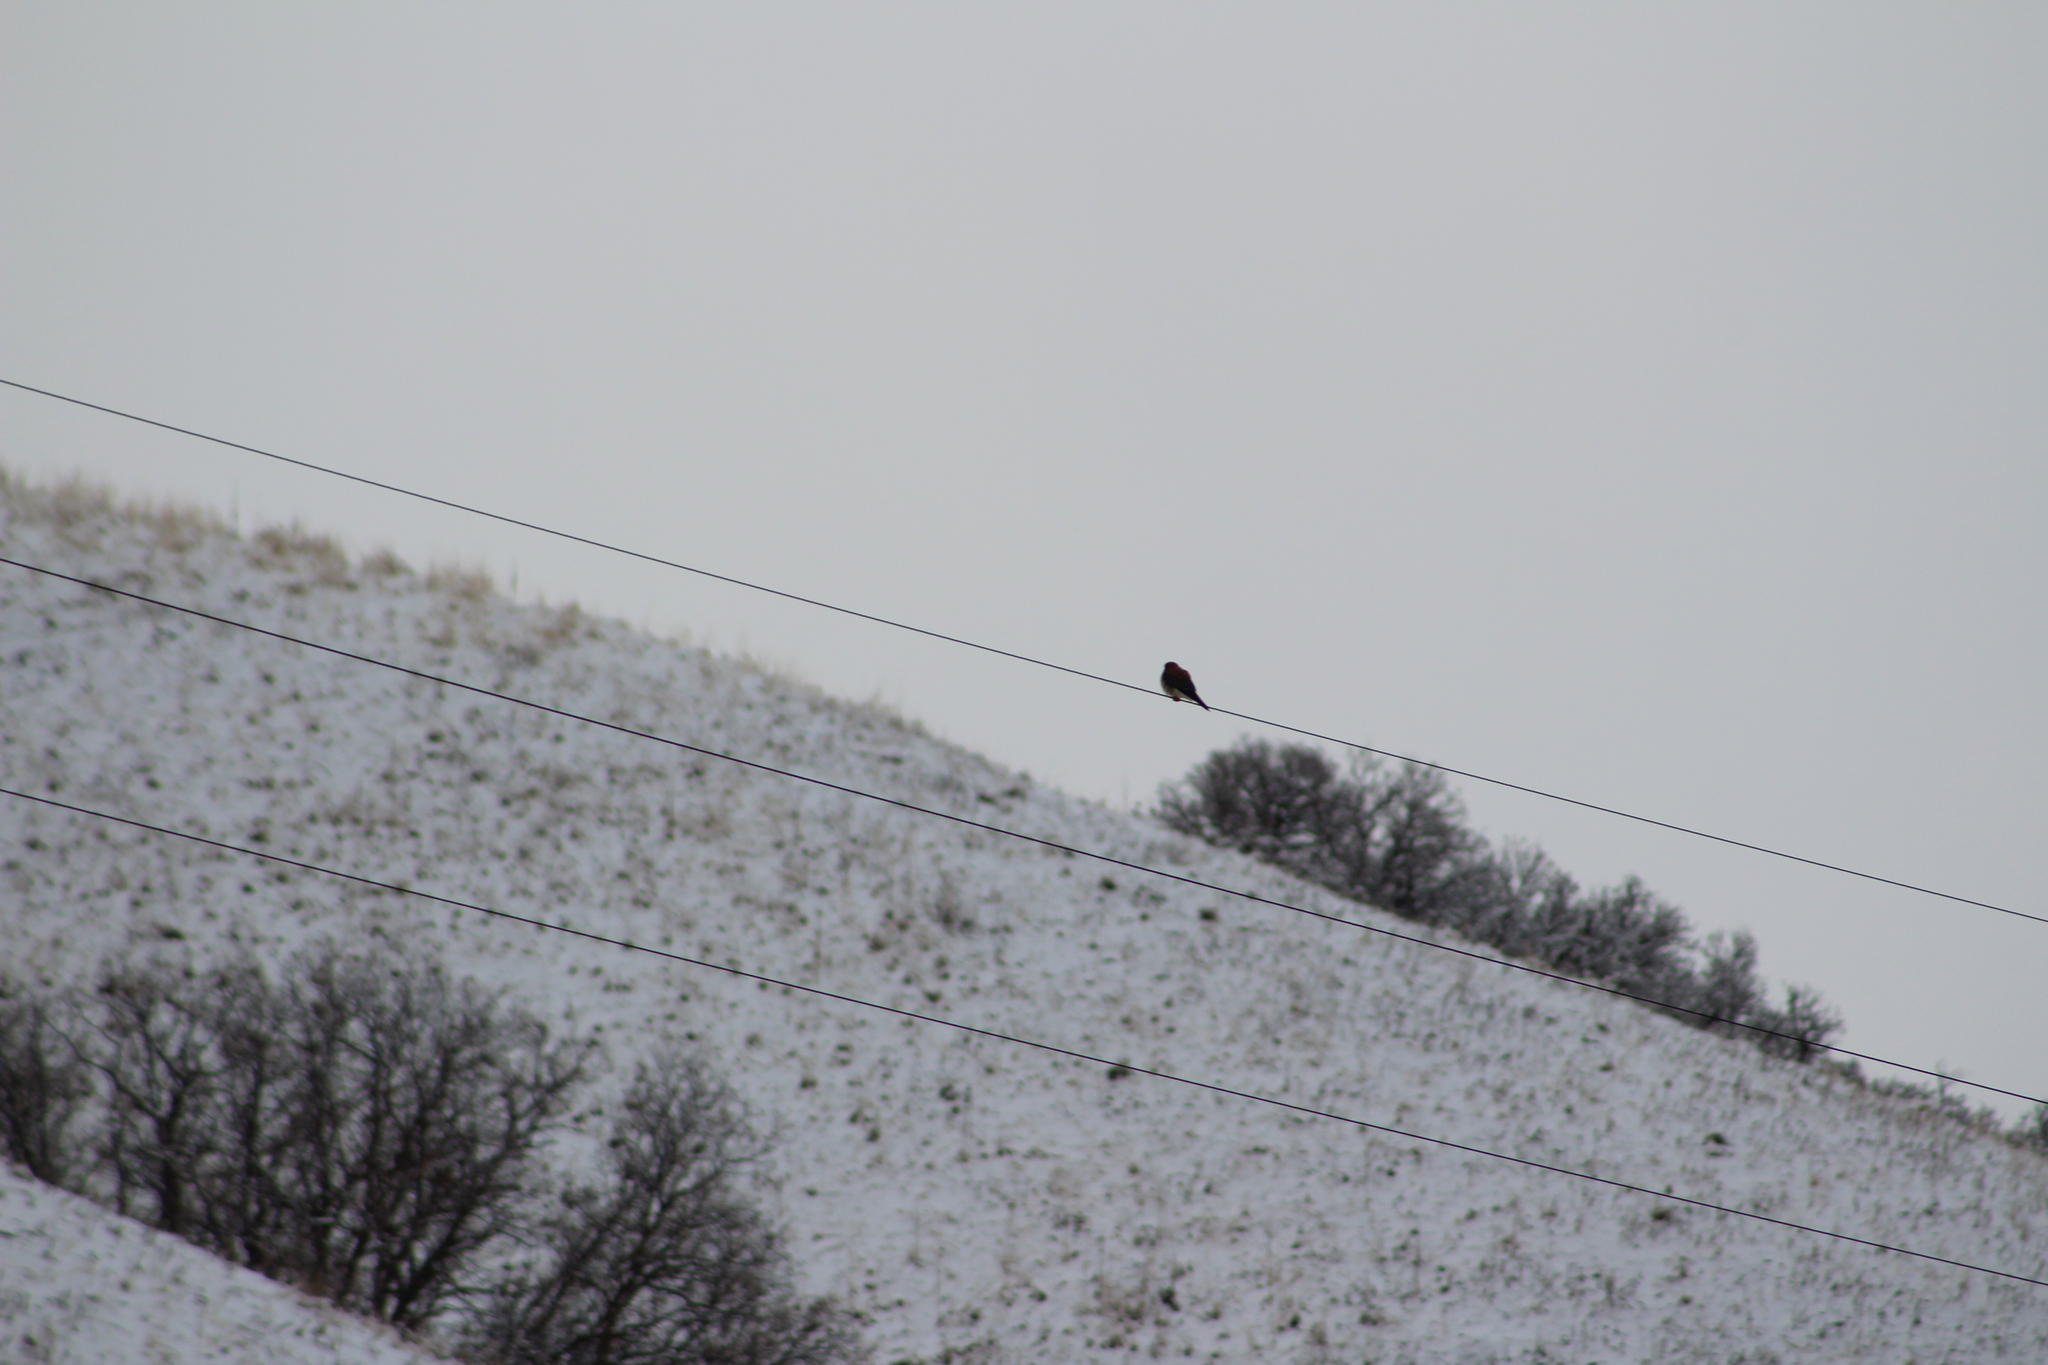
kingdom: Animalia
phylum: Chordata
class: Aves
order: Falconiformes
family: Falconidae
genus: Falco
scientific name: Falco sparverius
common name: American kestrel
